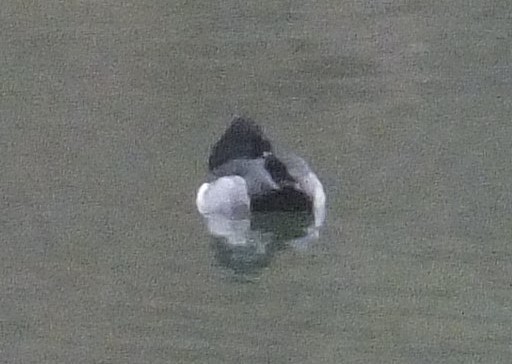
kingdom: Animalia
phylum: Chordata
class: Aves
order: Anseriformes
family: Anatidae
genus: Aythya
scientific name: Aythya collaris
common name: Ring-necked duck
